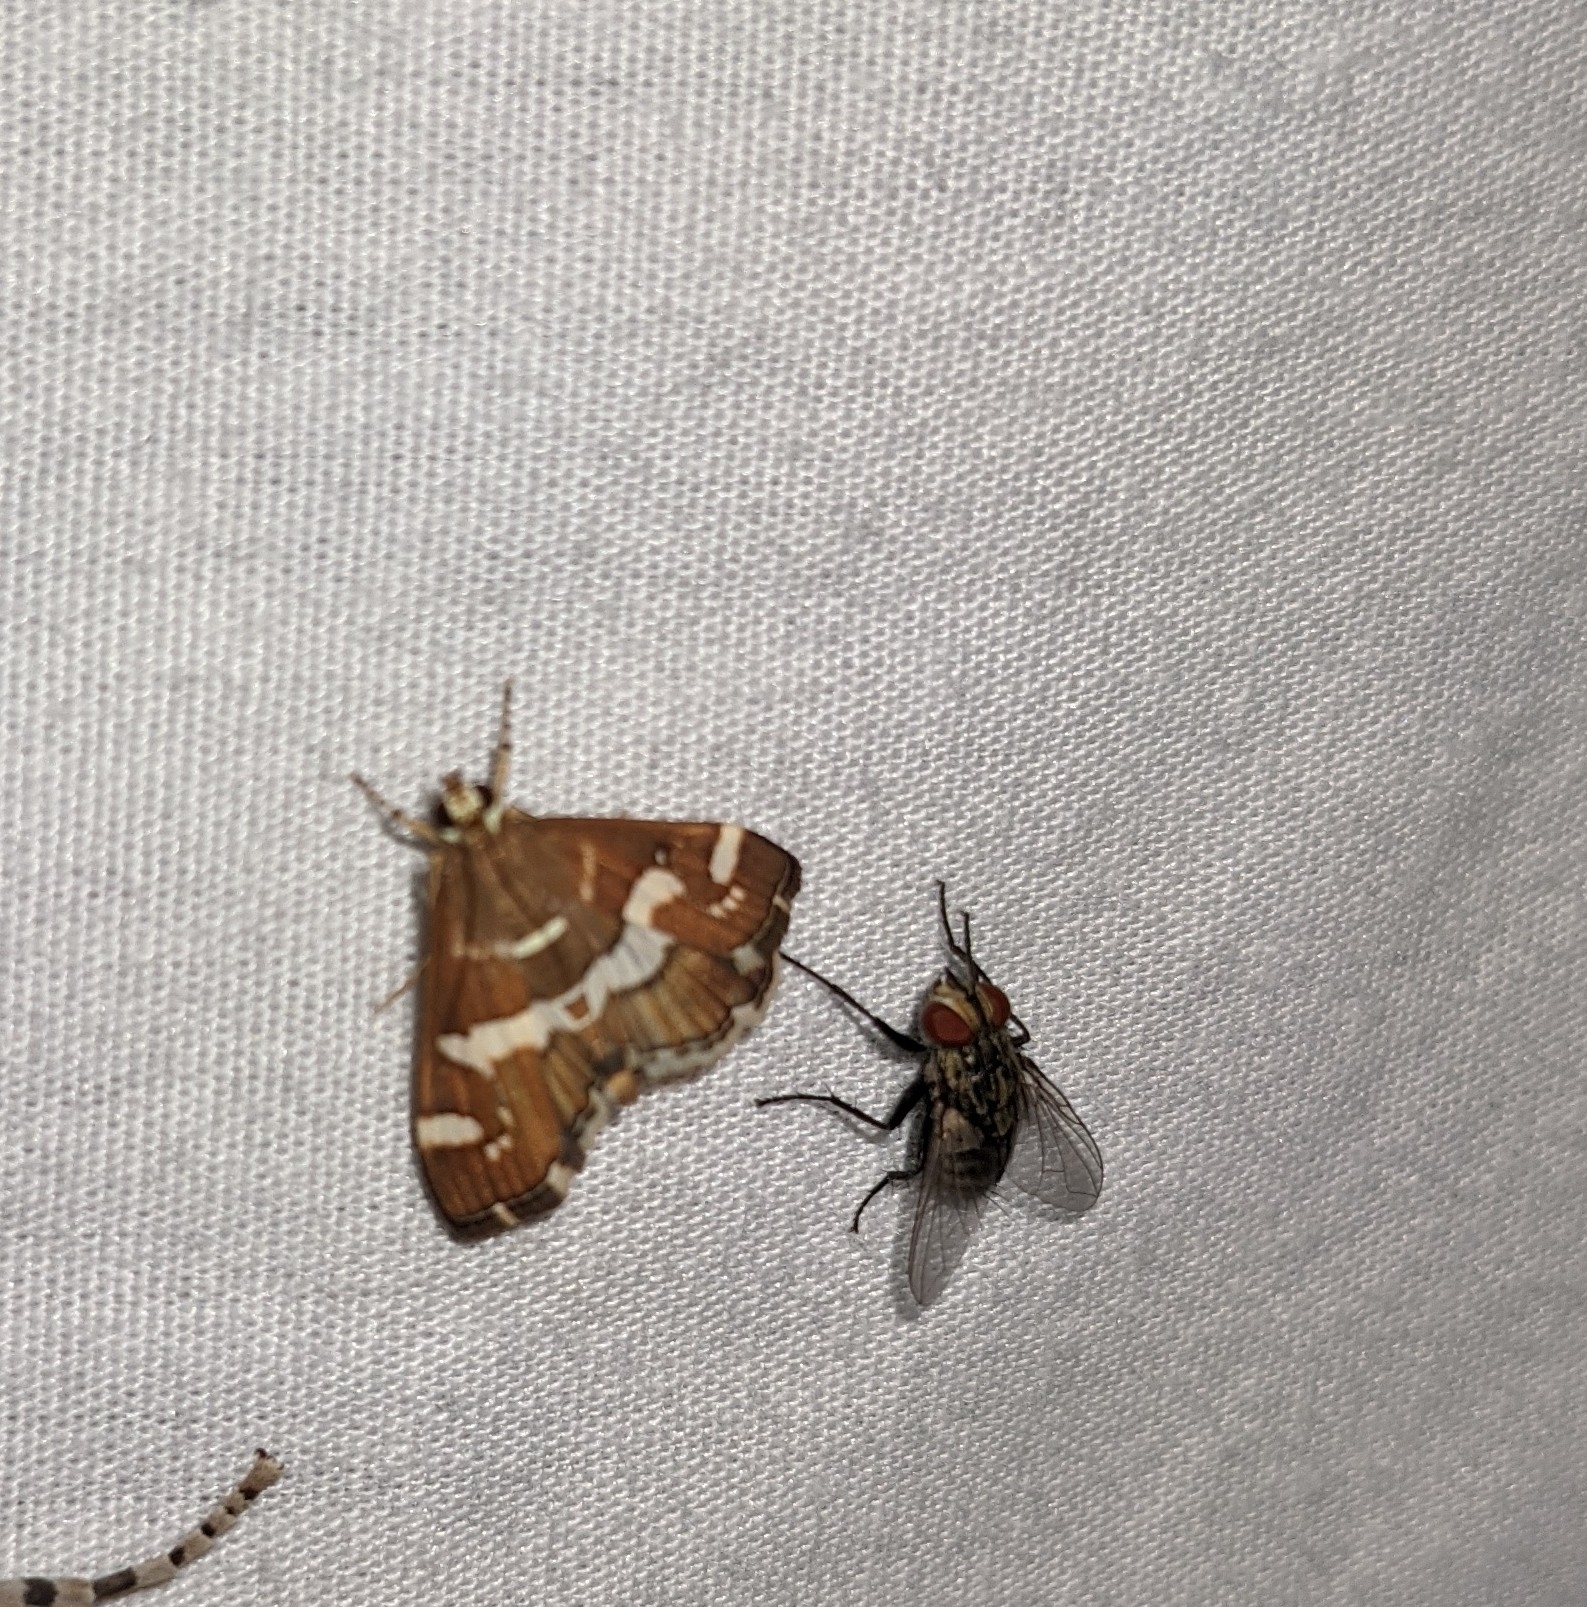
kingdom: Animalia
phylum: Arthropoda
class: Insecta
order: Lepidoptera
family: Crambidae
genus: Spoladea
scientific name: Spoladea recurvalis
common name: Beet webworm moth
